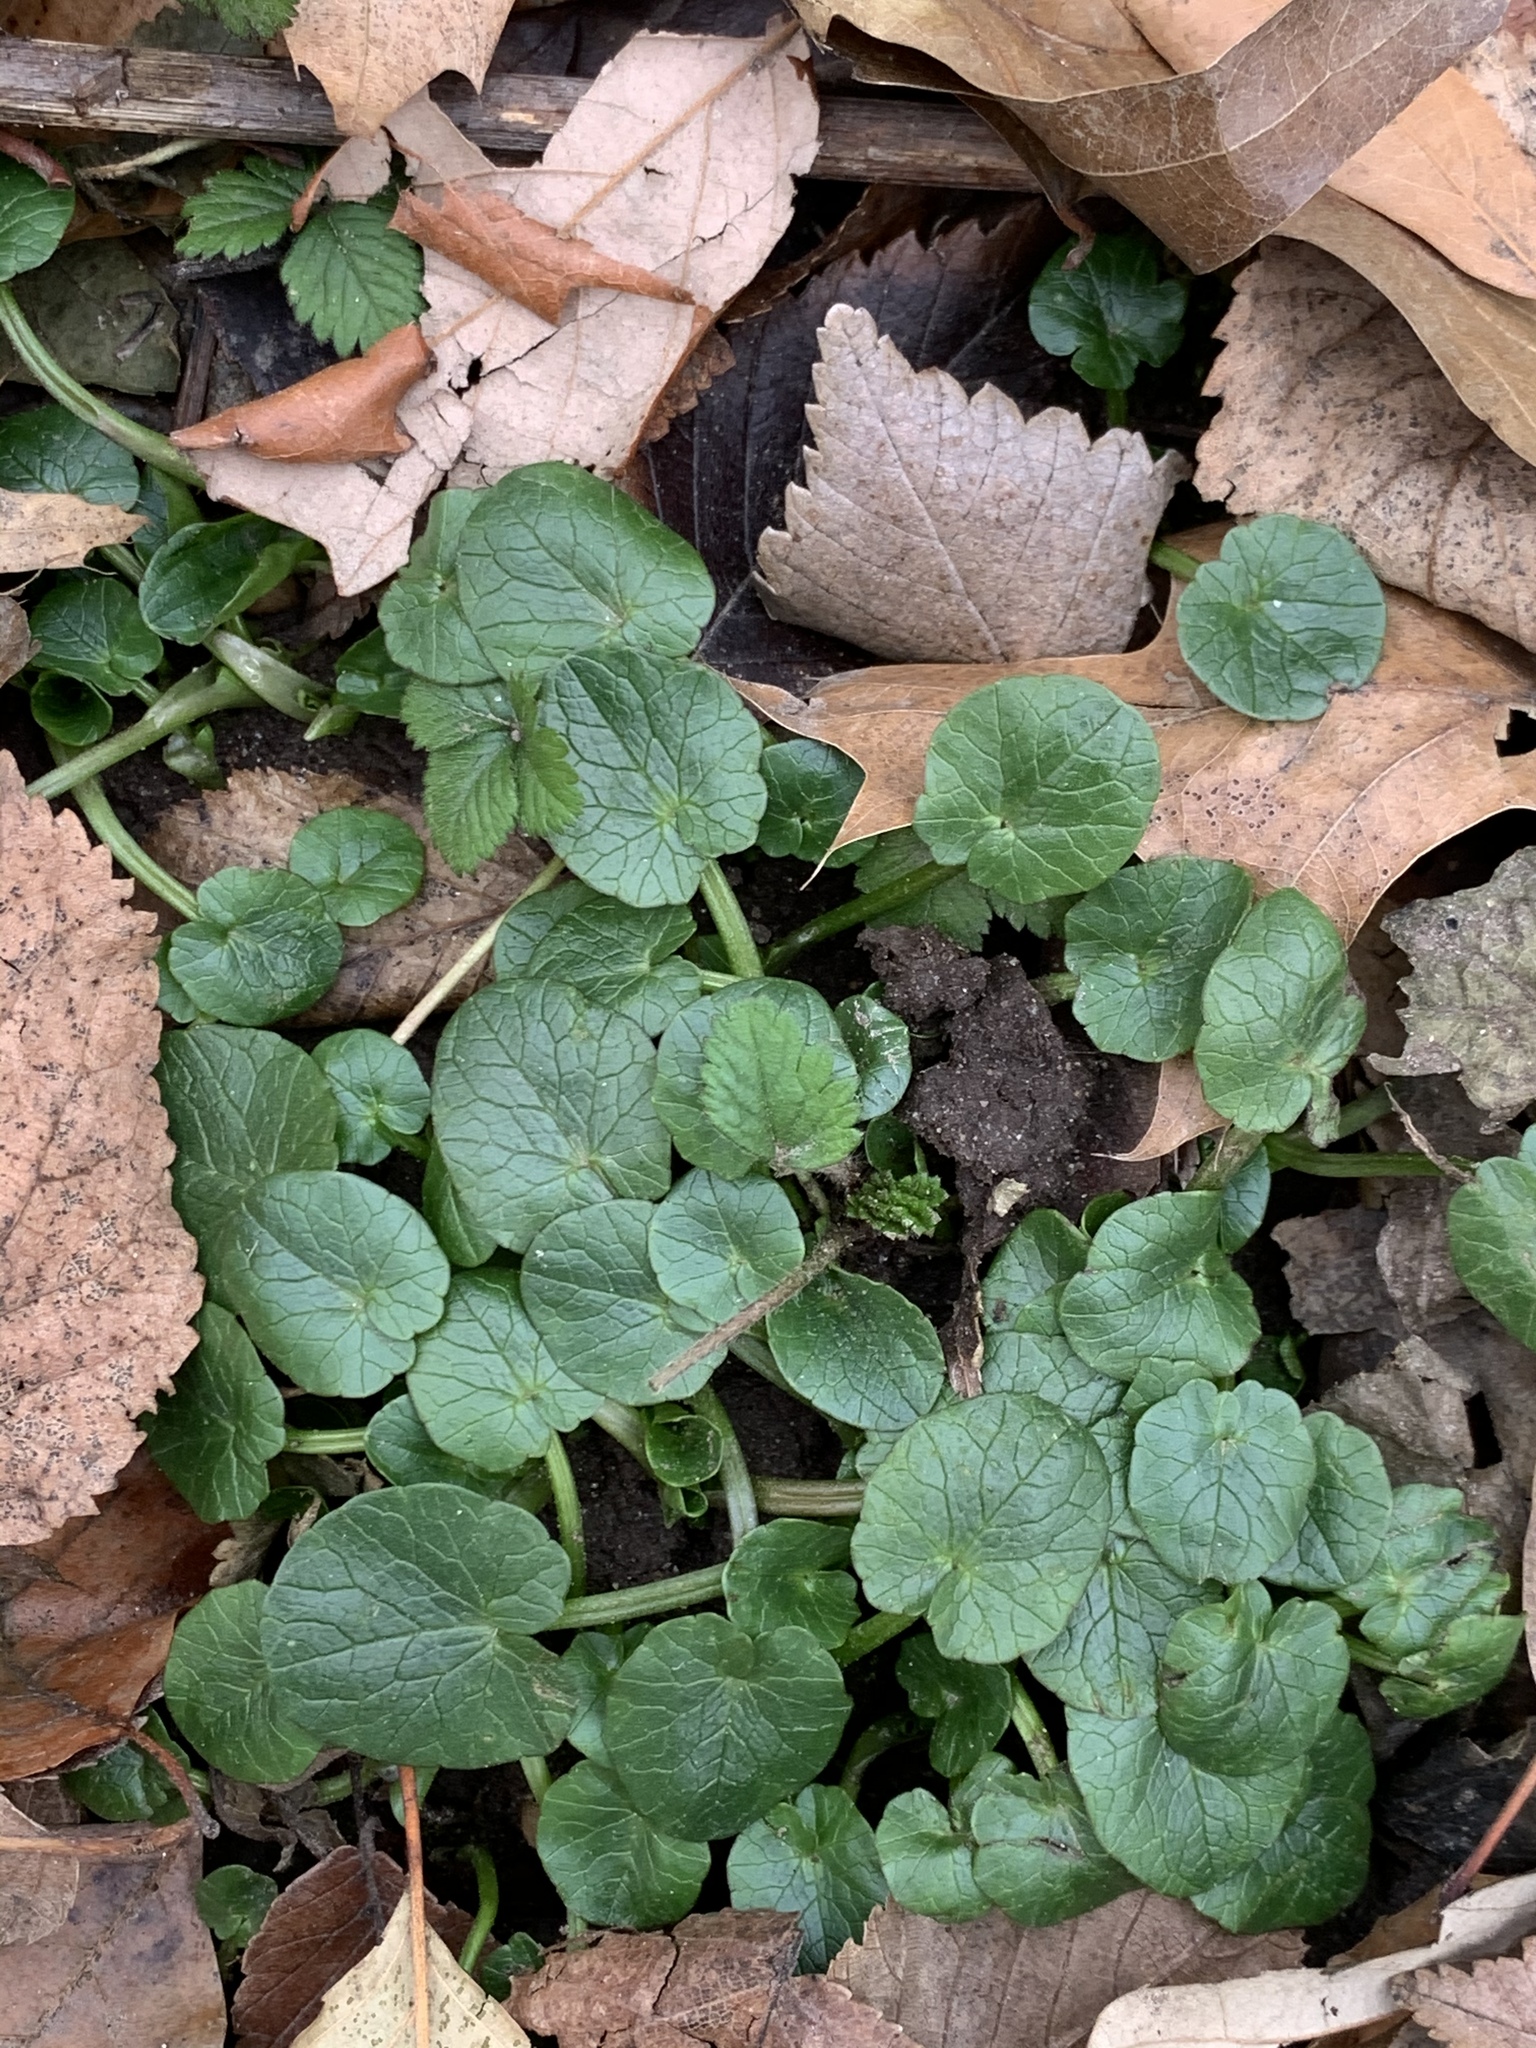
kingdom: Plantae
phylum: Tracheophyta
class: Magnoliopsida
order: Ranunculales
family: Ranunculaceae
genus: Ficaria
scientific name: Ficaria verna
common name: Lesser celandine
